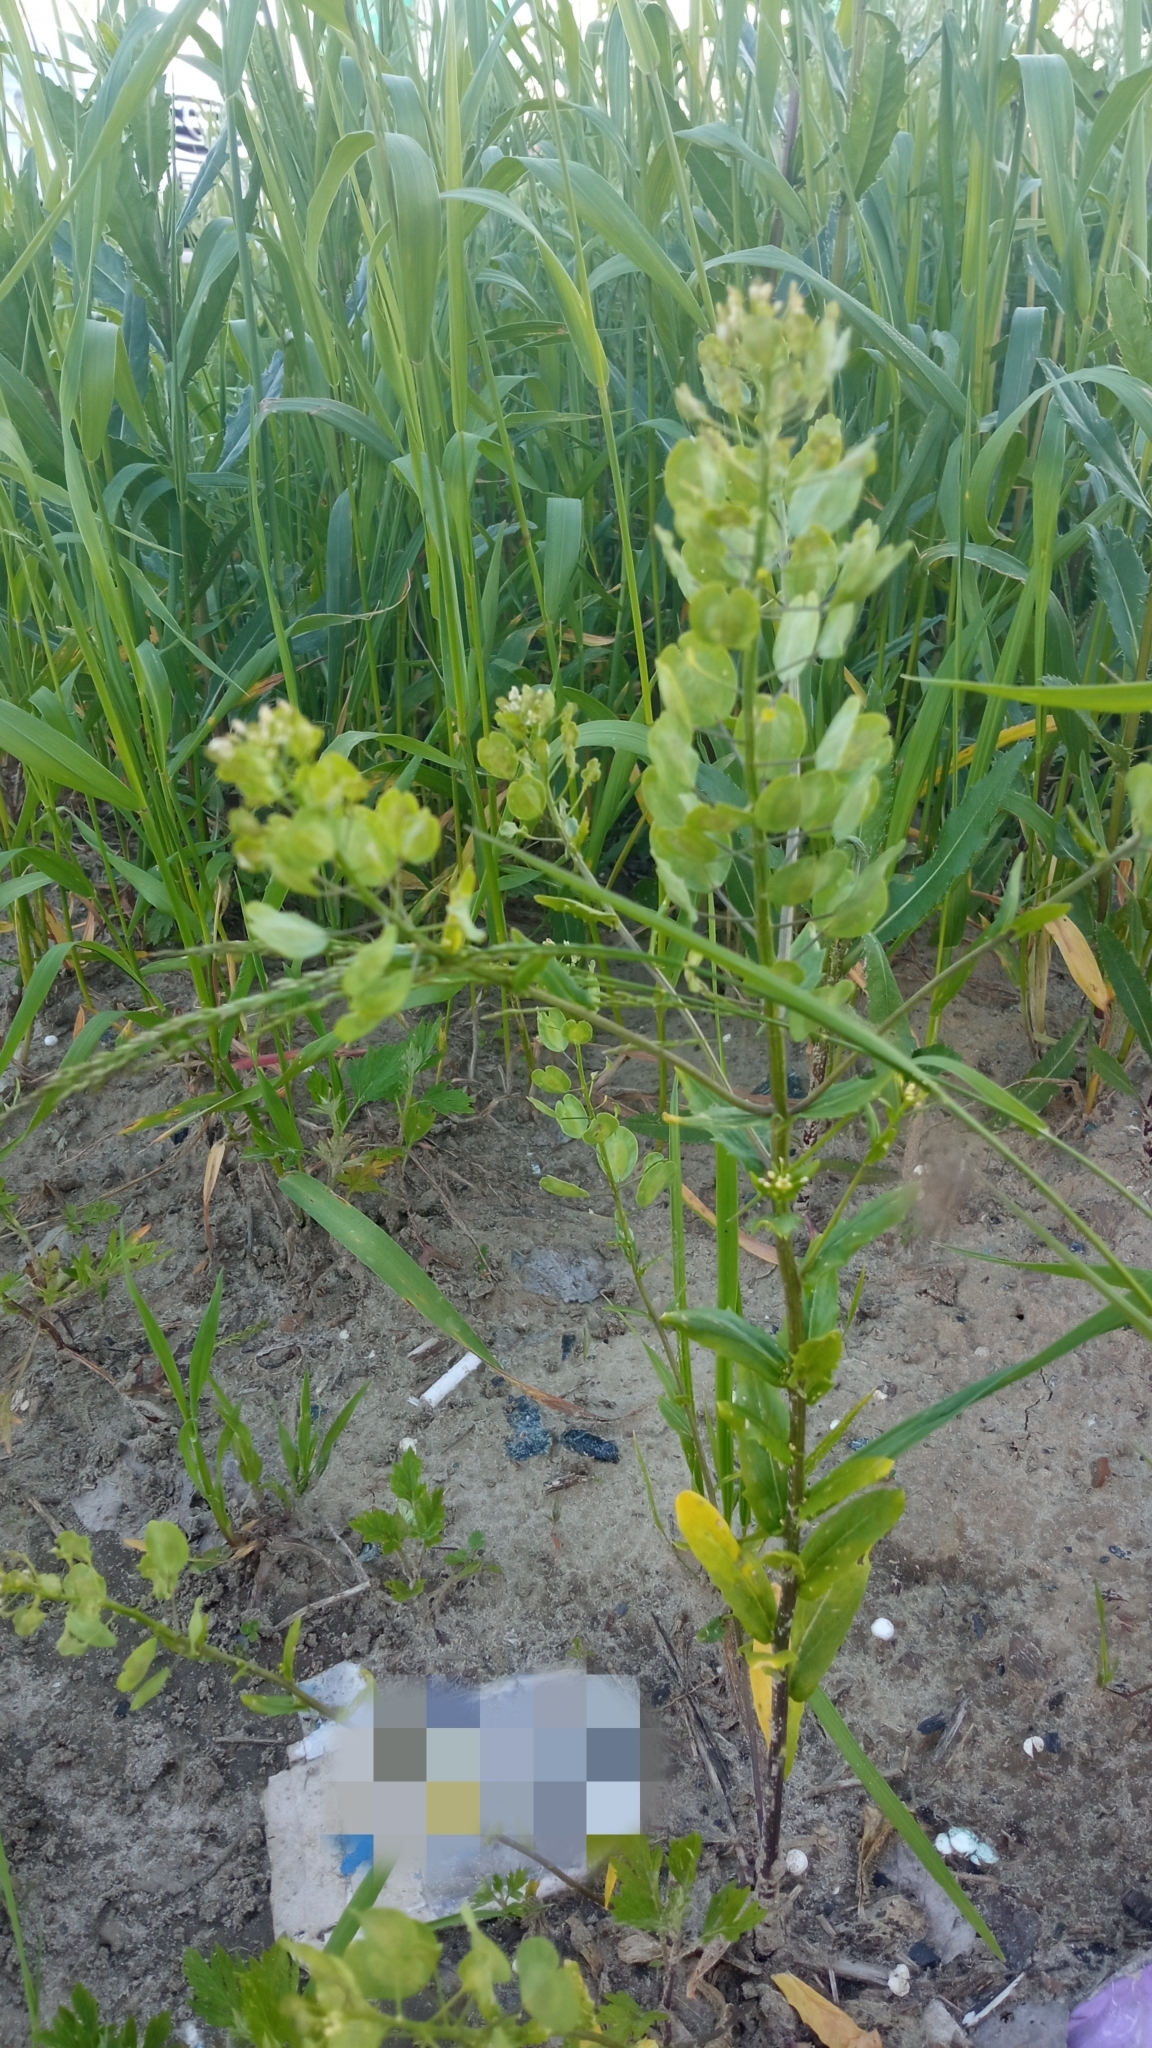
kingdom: Plantae
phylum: Tracheophyta
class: Magnoliopsida
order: Brassicales
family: Brassicaceae
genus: Thlaspi
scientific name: Thlaspi arvense
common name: Field pennycress
